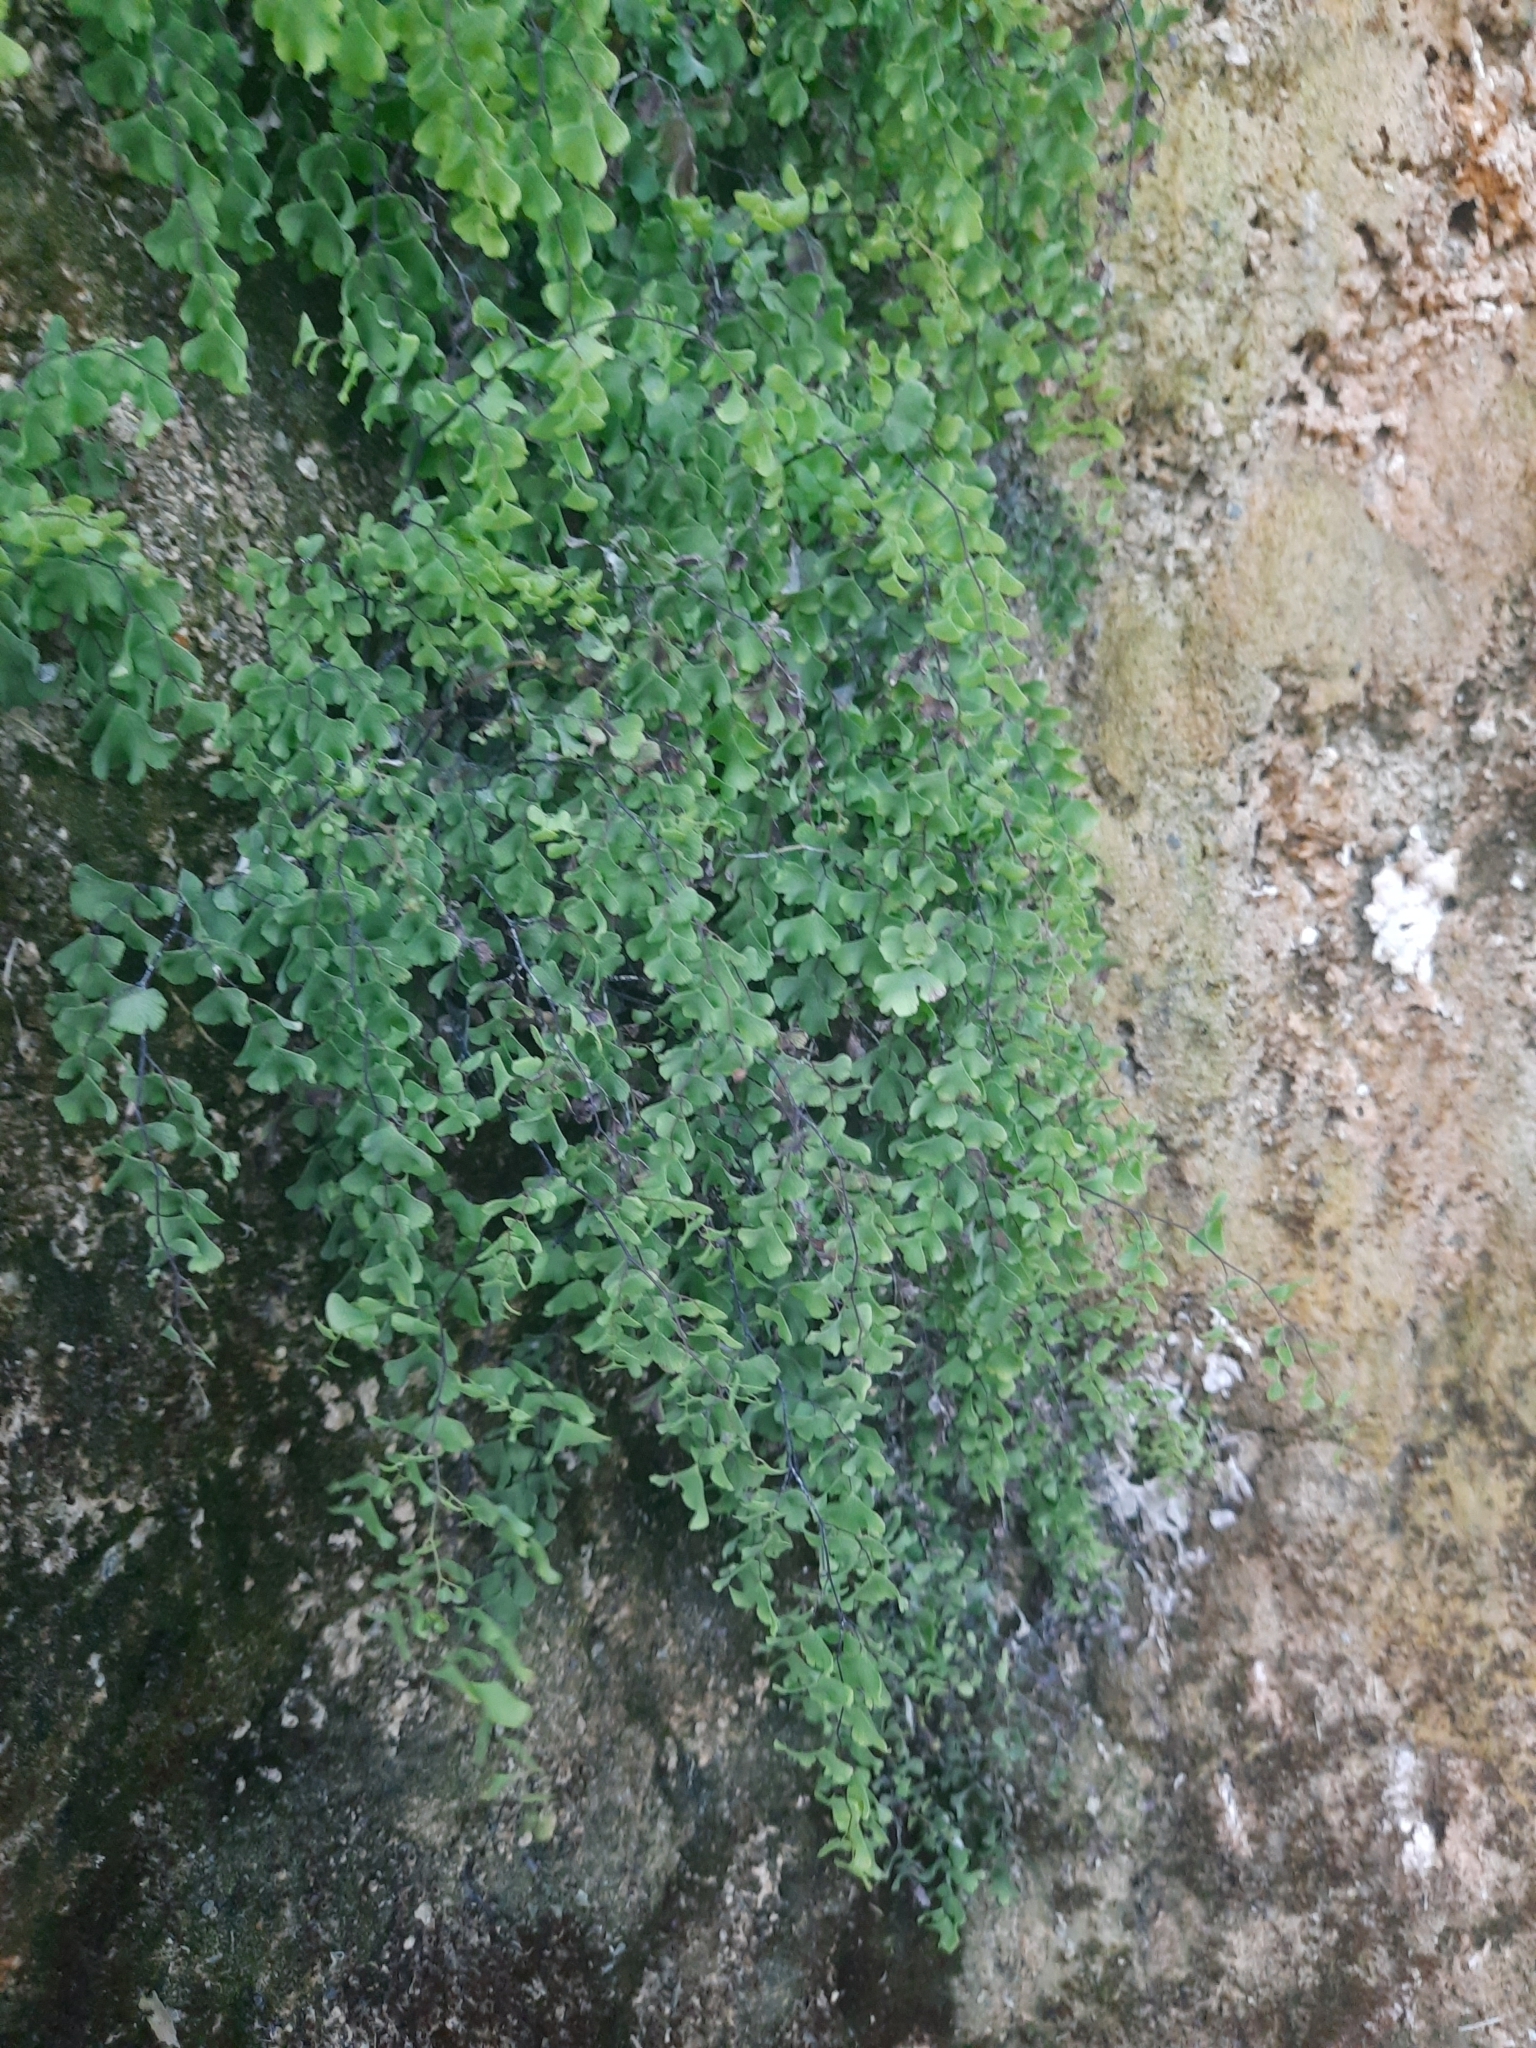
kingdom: Plantae
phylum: Tracheophyta
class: Polypodiopsida
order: Polypodiales
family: Pteridaceae
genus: Adiantum
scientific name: Adiantum capillus-veneris
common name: Maidenhair fern
